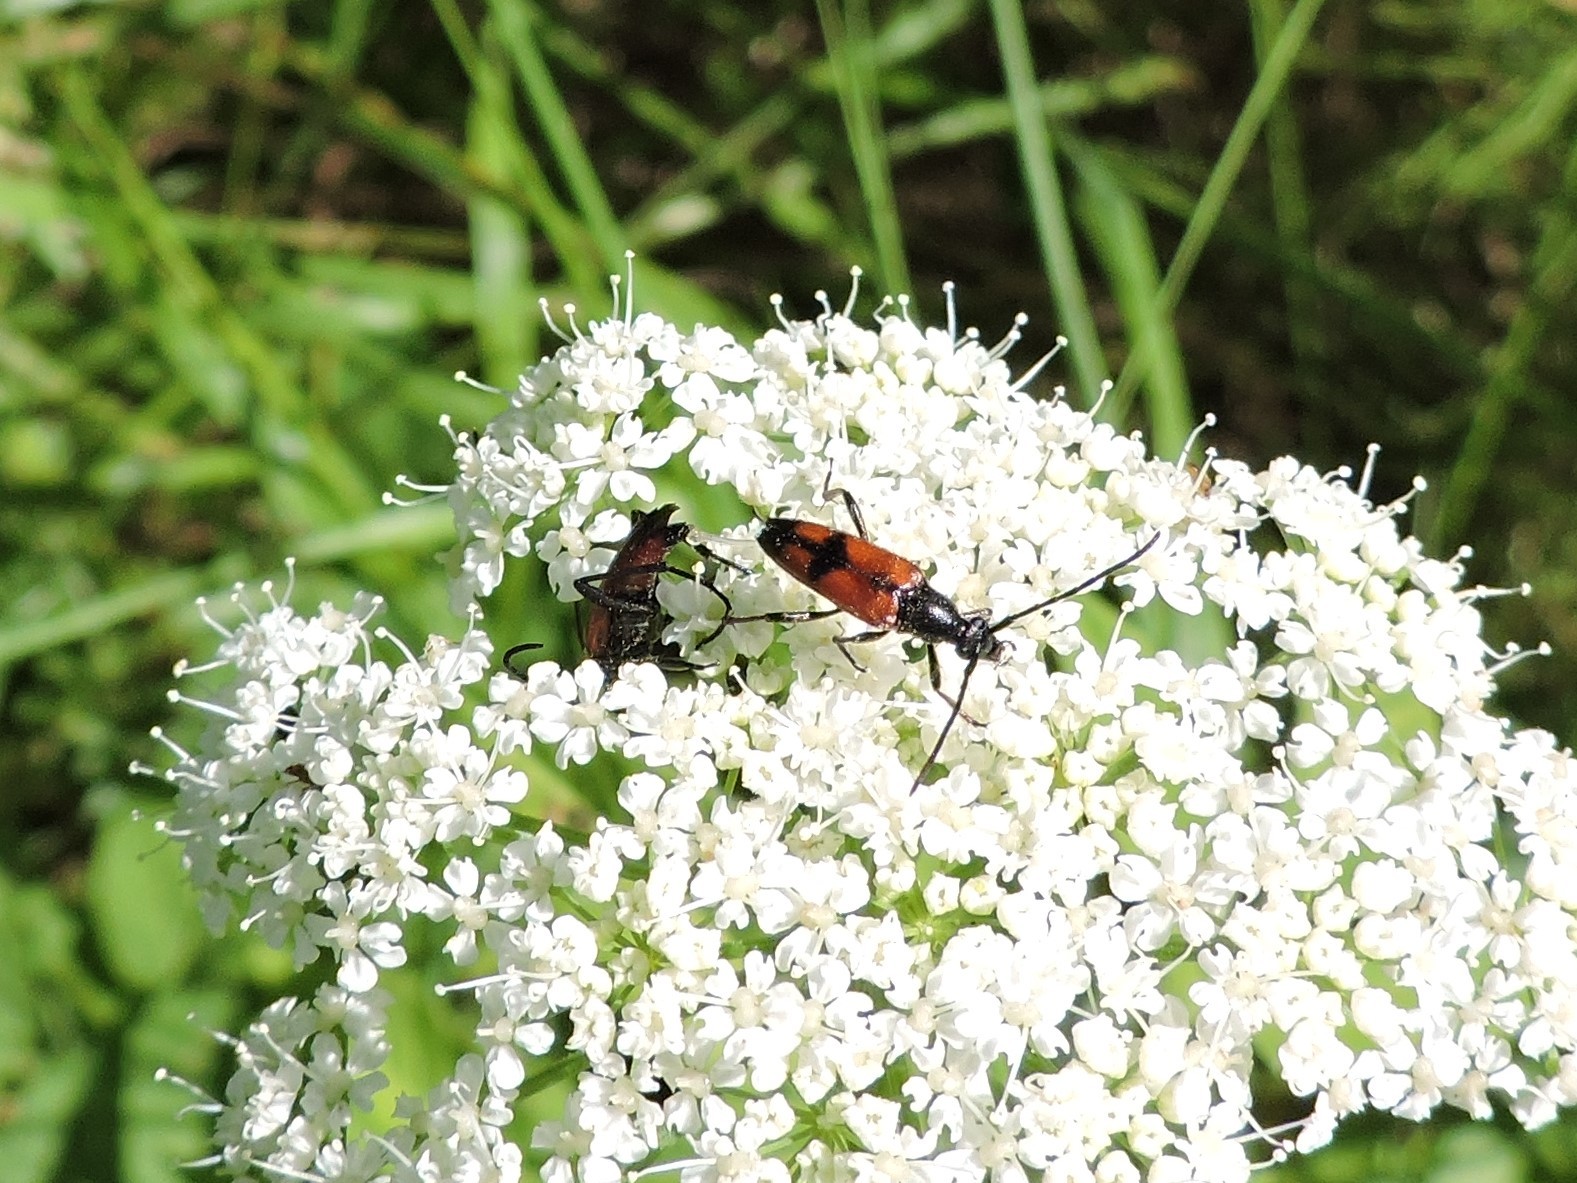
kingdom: Animalia
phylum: Arthropoda
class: Insecta
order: Coleoptera
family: Cerambycidae
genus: Stenurella
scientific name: Stenurella bifasciata
